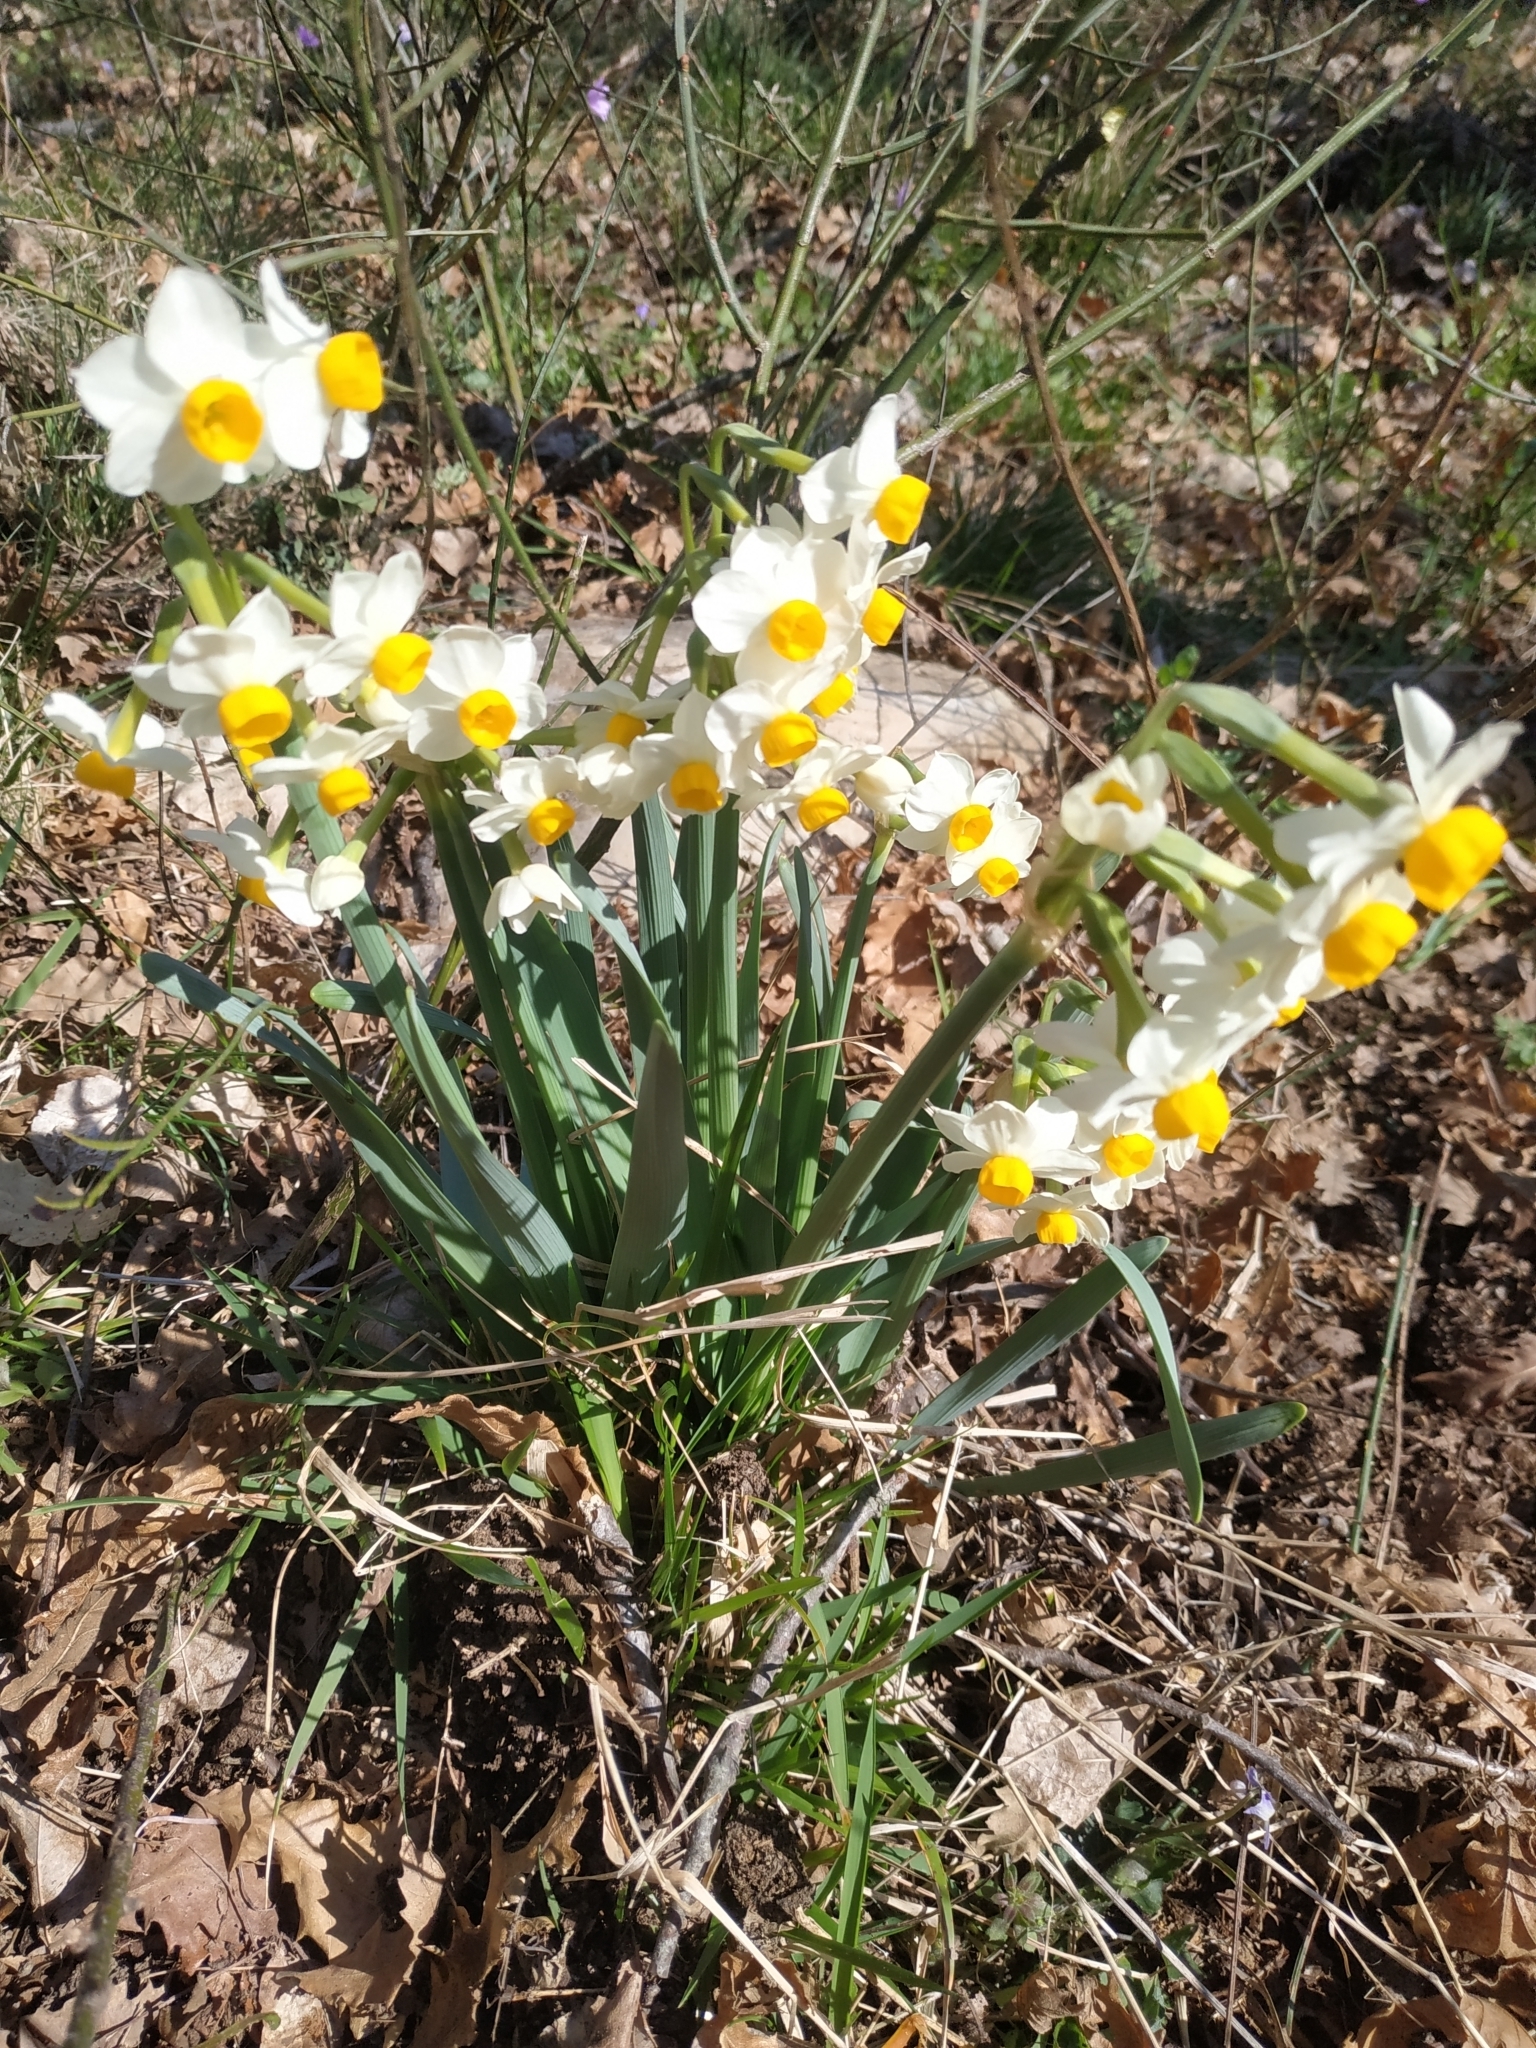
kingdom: Plantae
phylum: Tracheophyta
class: Liliopsida
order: Asparagales
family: Amaryllidaceae
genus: Narcissus
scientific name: Narcissus tazetta
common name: Bunch-flowered daffodil
